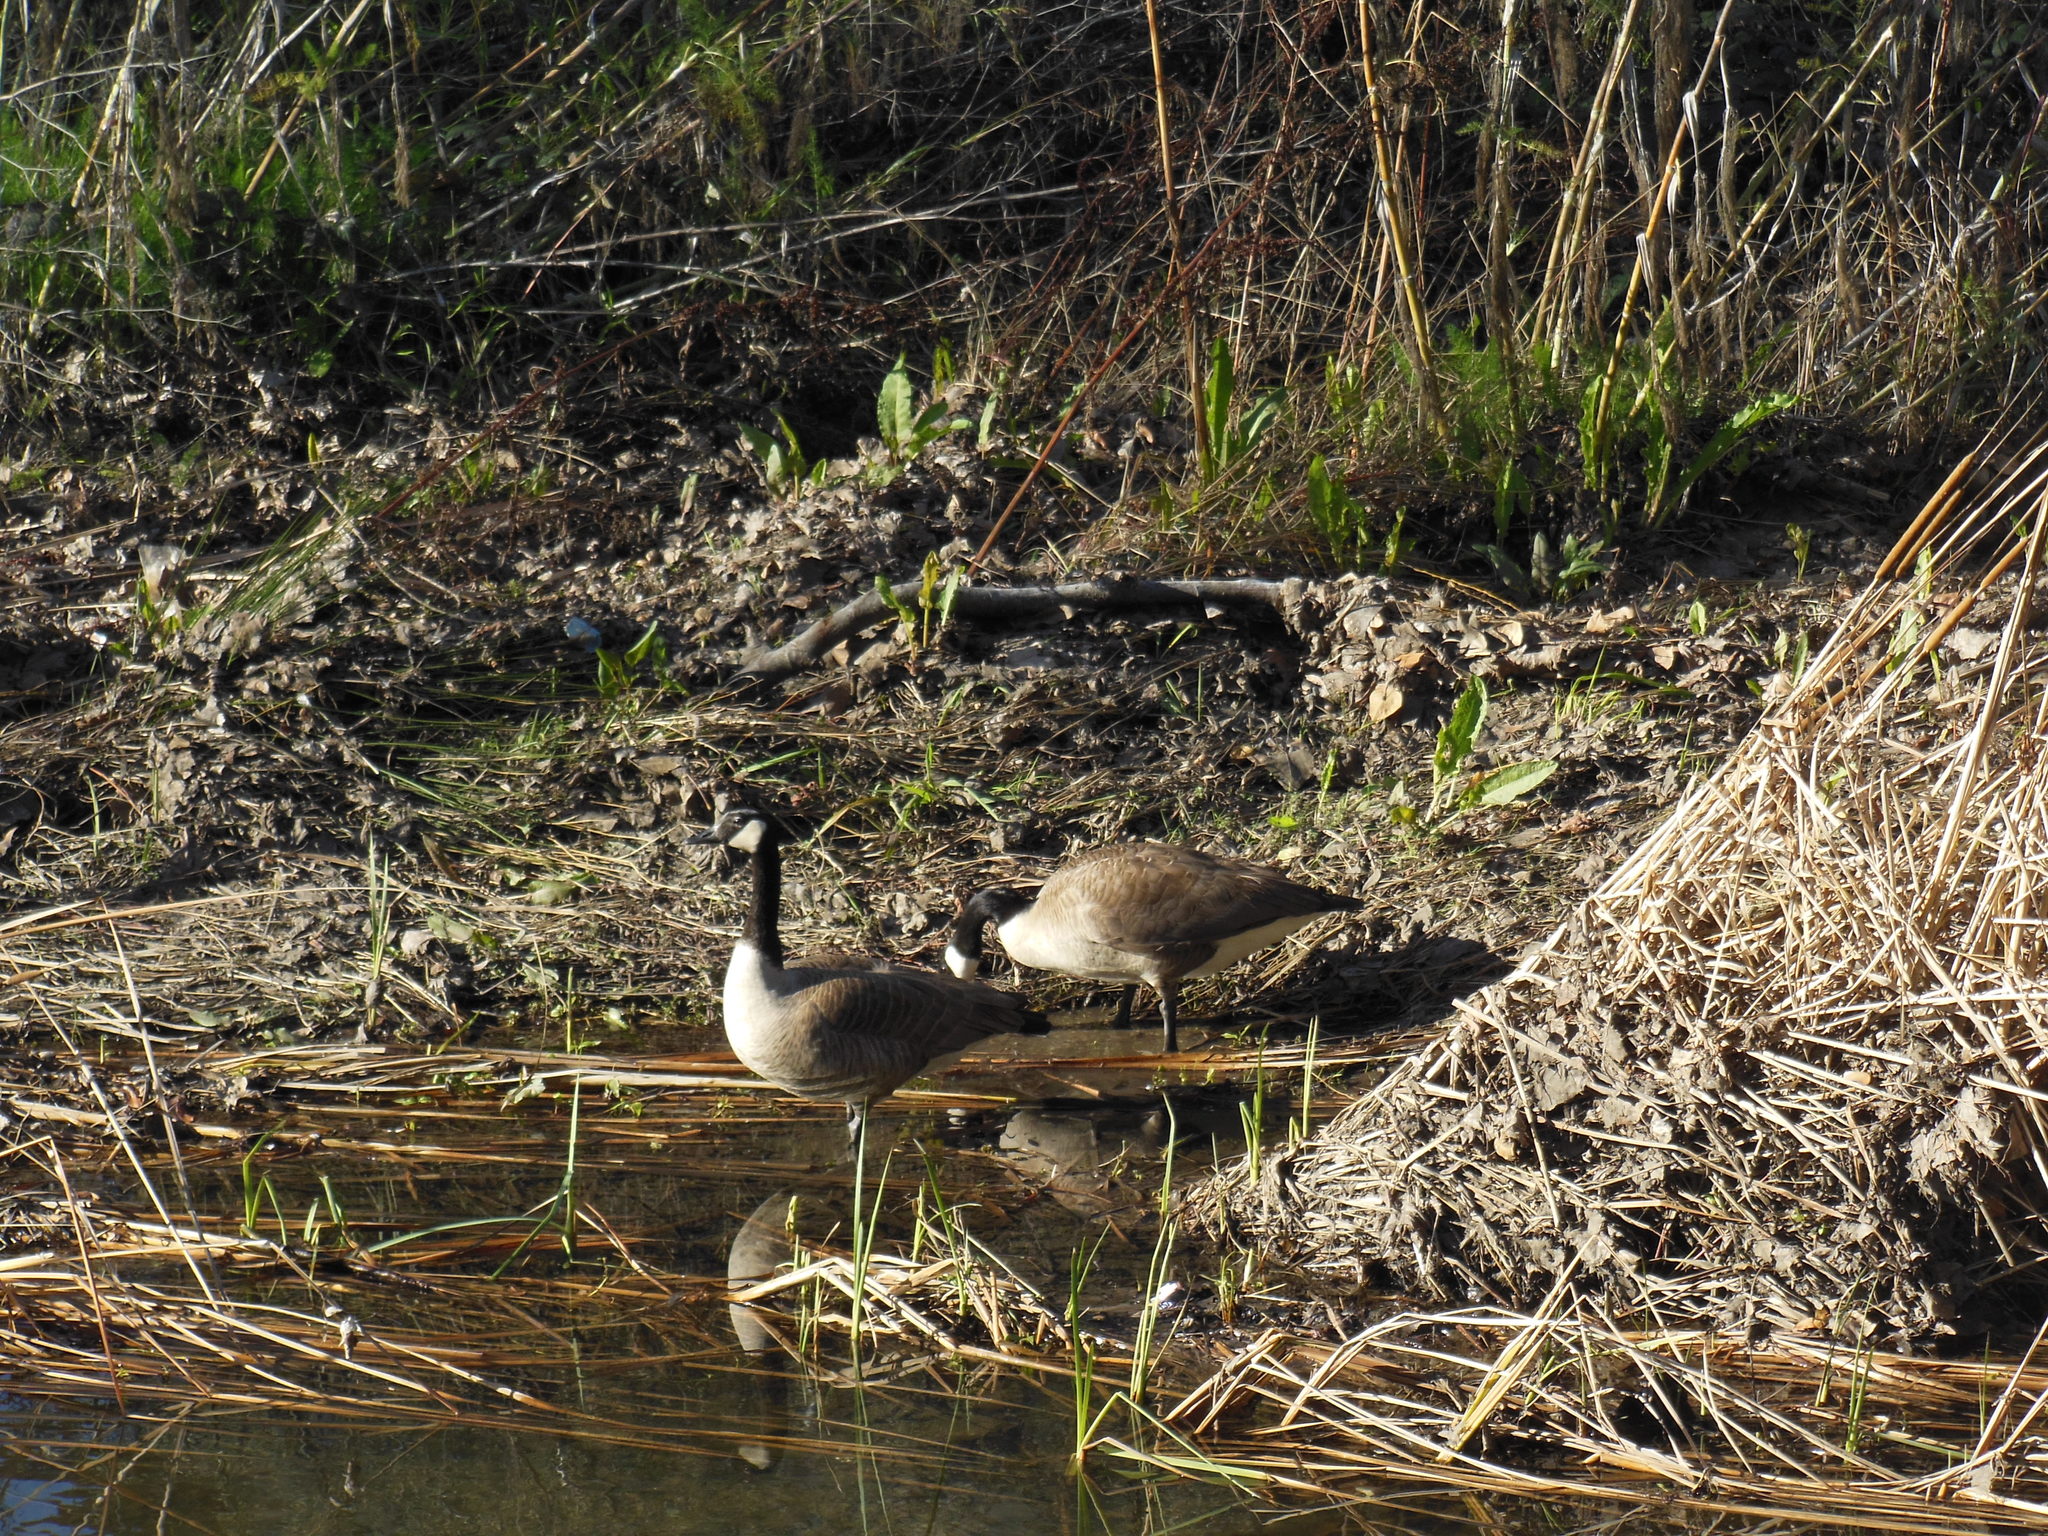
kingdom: Animalia
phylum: Chordata
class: Aves
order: Anseriformes
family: Anatidae
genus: Branta
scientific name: Branta canadensis
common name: Canada goose
